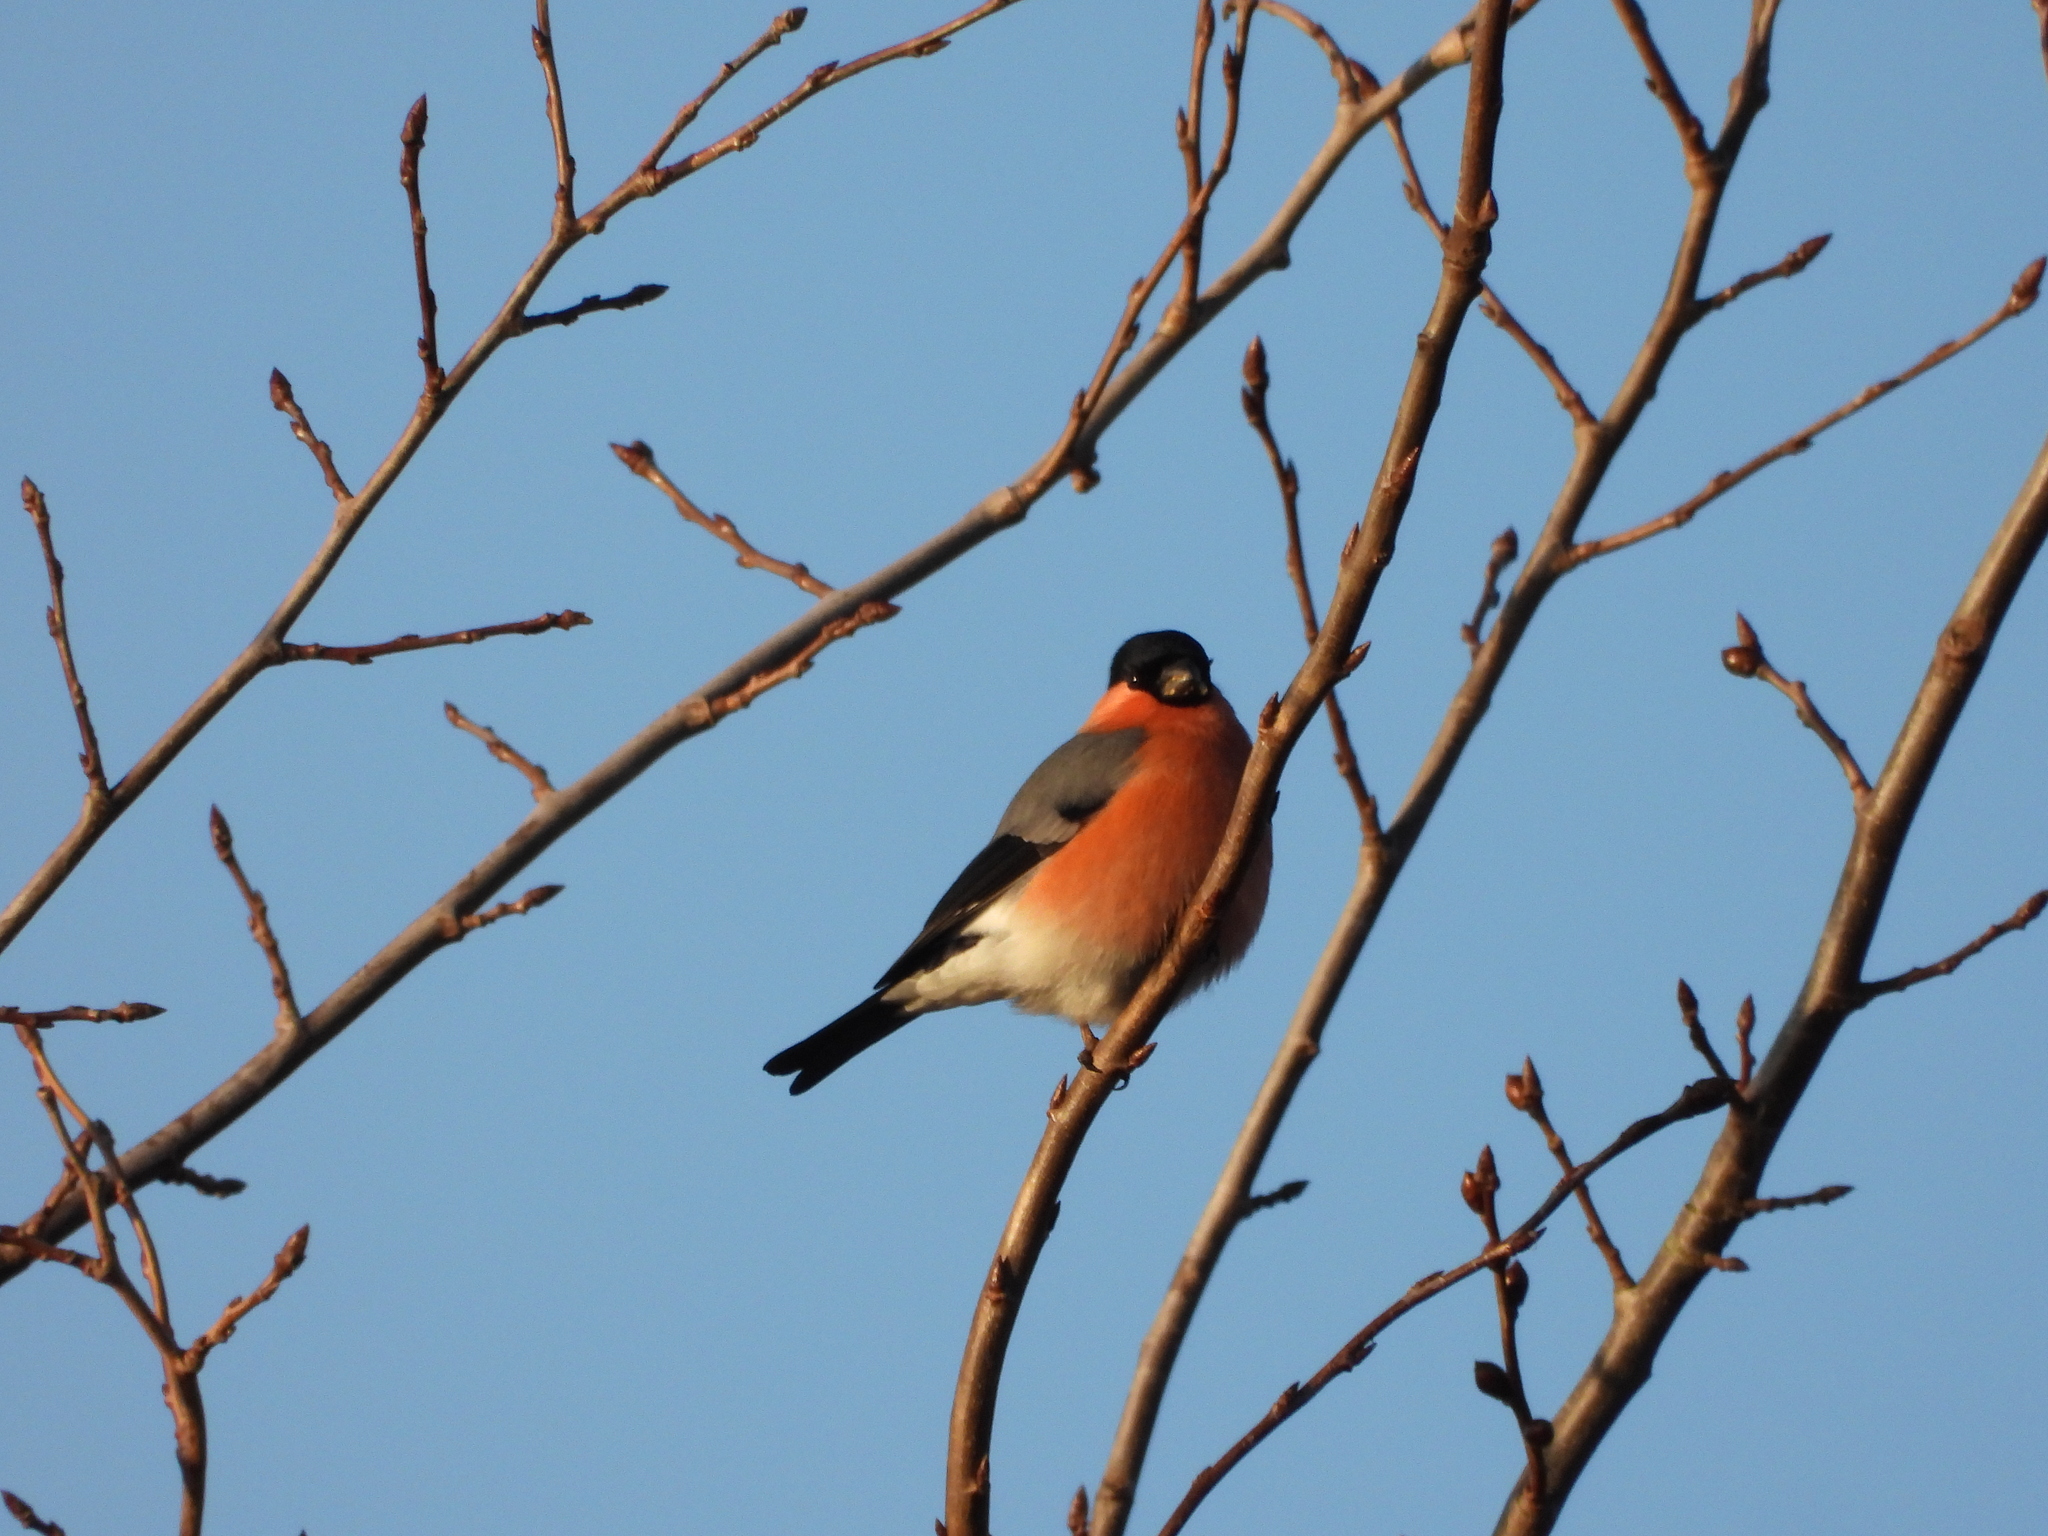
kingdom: Animalia
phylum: Chordata
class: Aves
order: Passeriformes
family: Fringillidae
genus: Pyrrhula
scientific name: Pyrrhula pyrrhula
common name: Eurasian bullfinch
